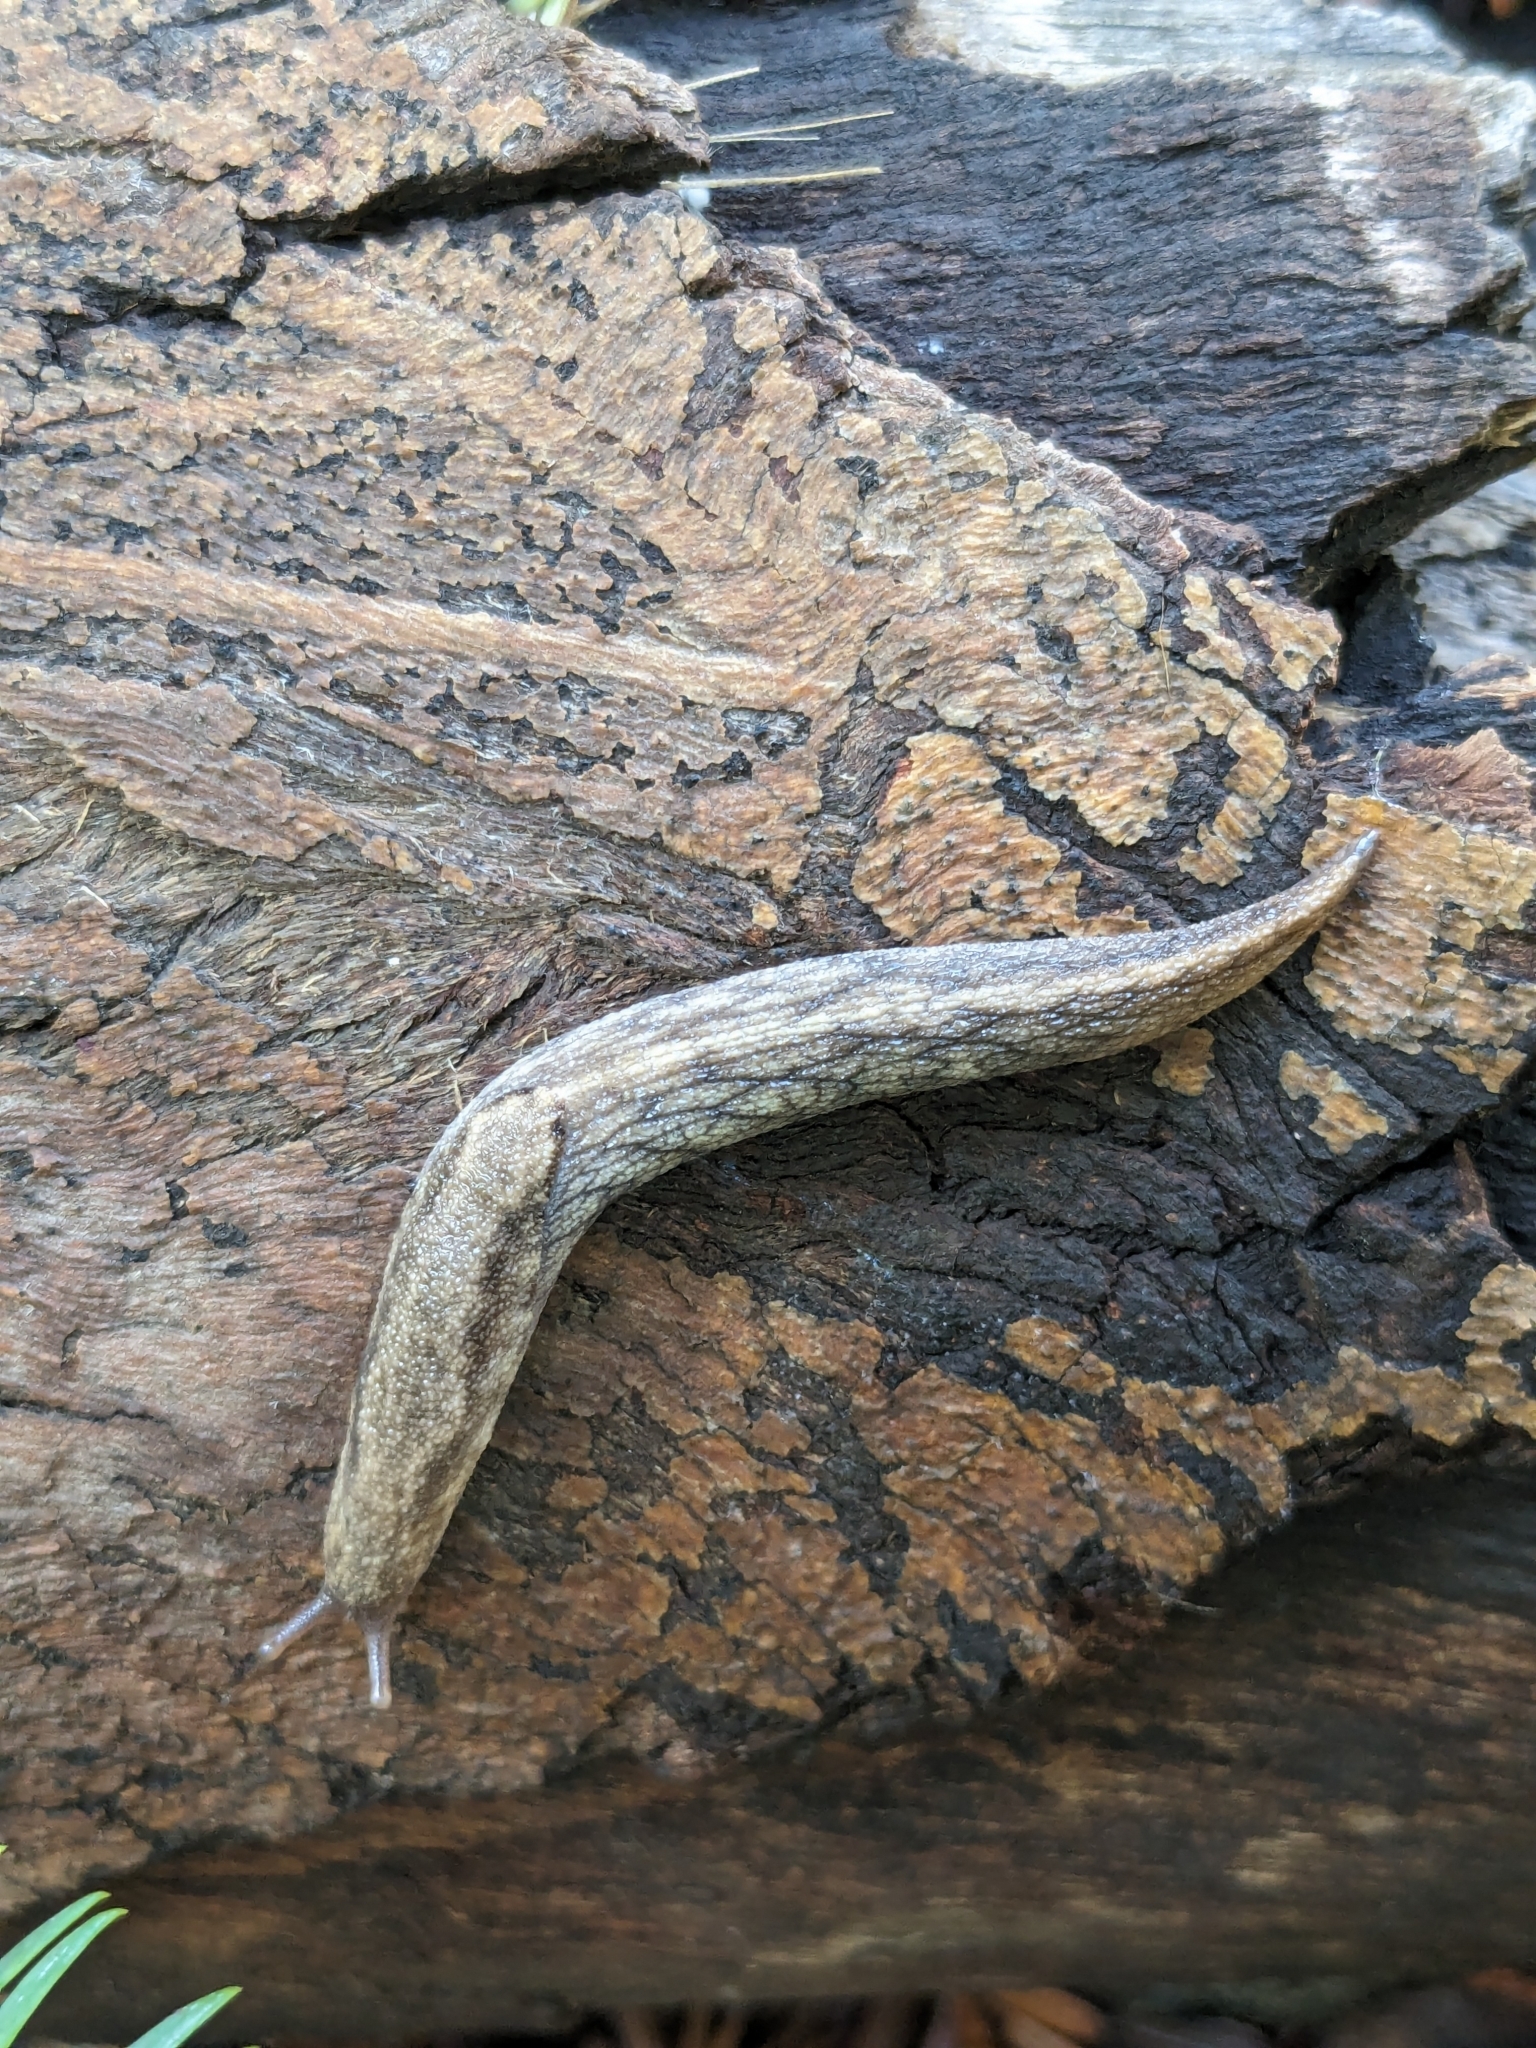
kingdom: Animalia
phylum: Mollusca
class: Gastropoda
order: Stylommatophora
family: Ariolimacidae
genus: Prophysaon
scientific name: Prophysaon andersonii
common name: Reticulate taildropper
